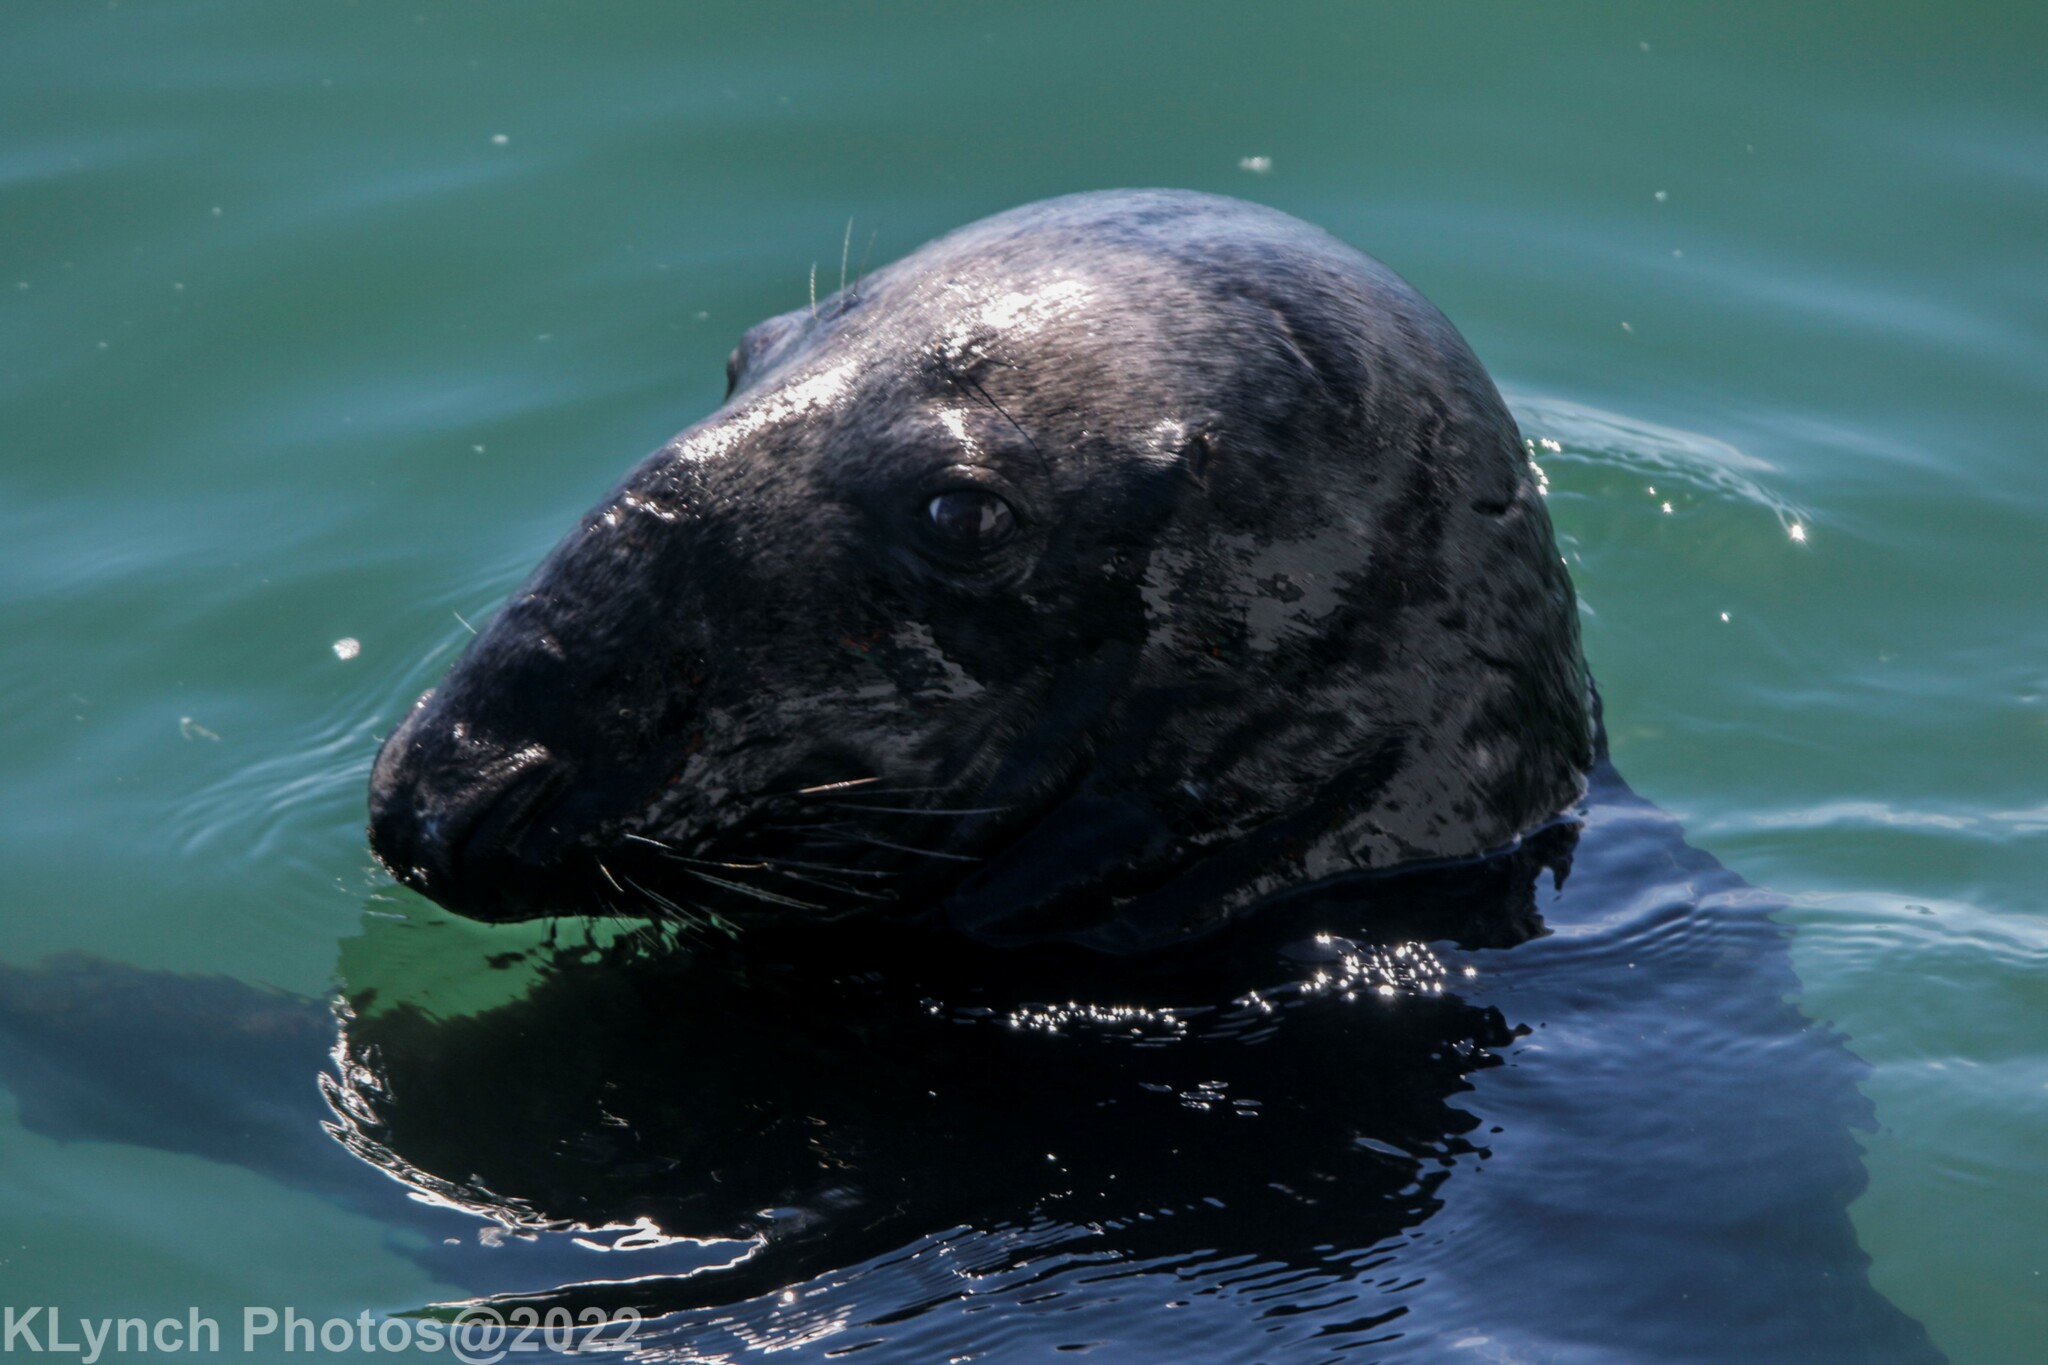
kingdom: Animalia
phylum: Chordata
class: Mammalia
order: Carnivora
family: Phocidae
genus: Halichoerus
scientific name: Halichoerus grypus
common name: Grey seal
